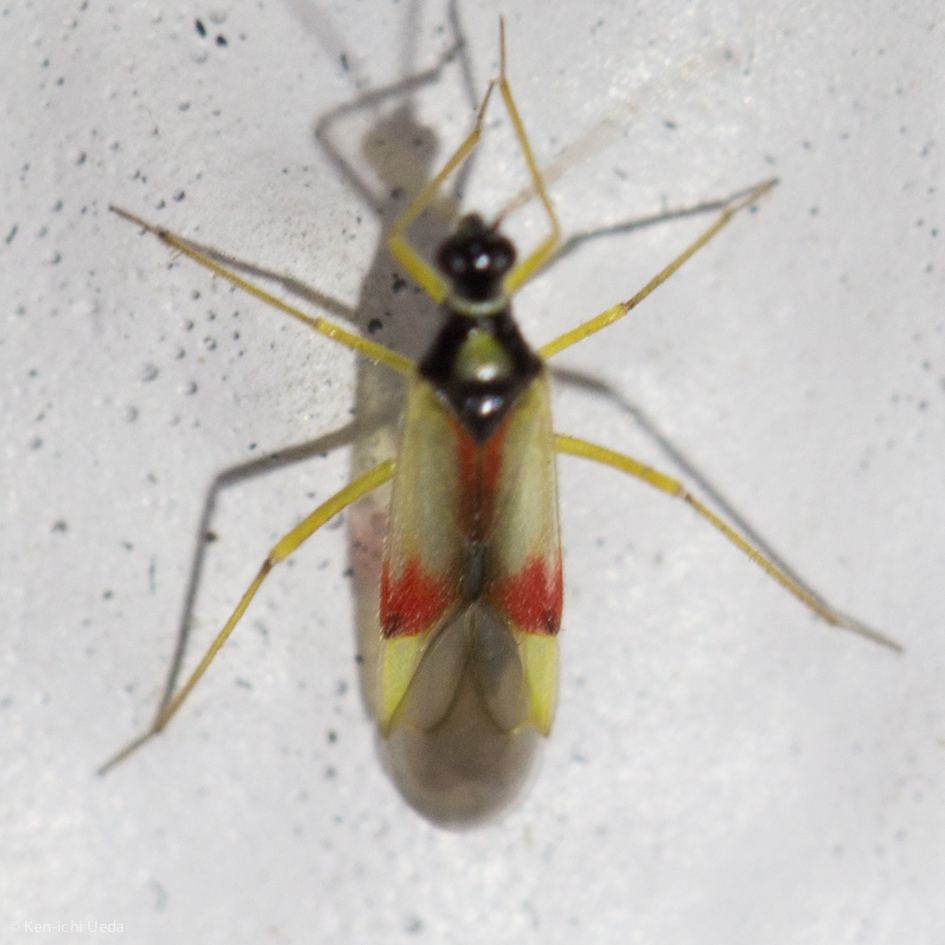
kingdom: Animalia
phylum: Arthropoda
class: Insecta
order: Hemiptera
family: Miridae
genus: Tupiocoris
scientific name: Tupiocoris californicus
